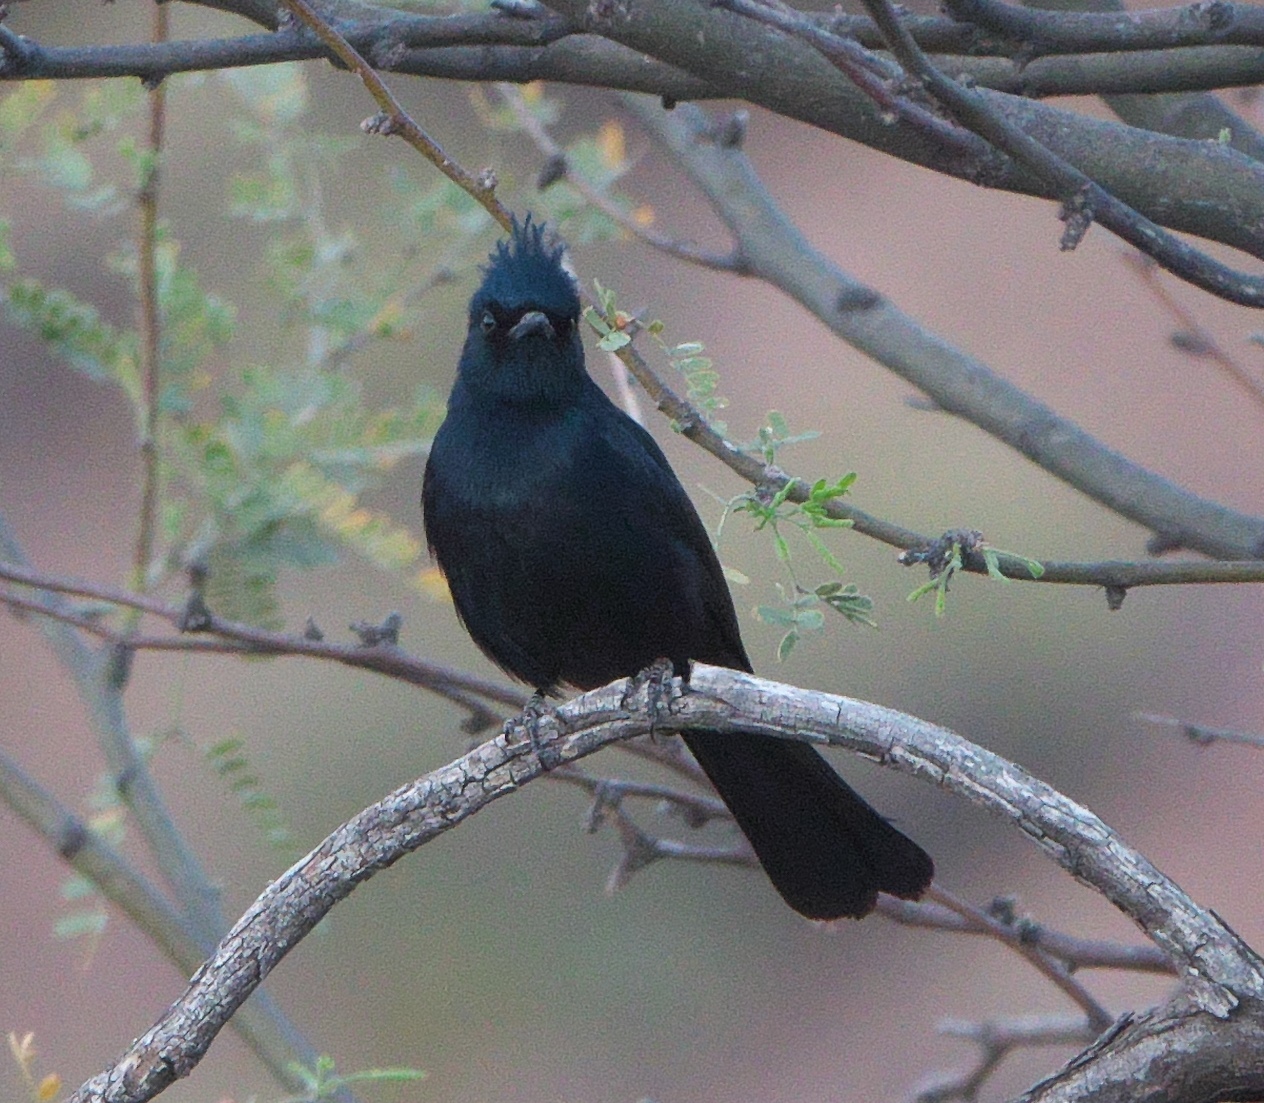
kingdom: Animalia
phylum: Chordata
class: Aves
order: Passeriformes
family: Ptilogonatidae
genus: Phainopepla
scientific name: Phainopepla nitens
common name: Phainopepla
